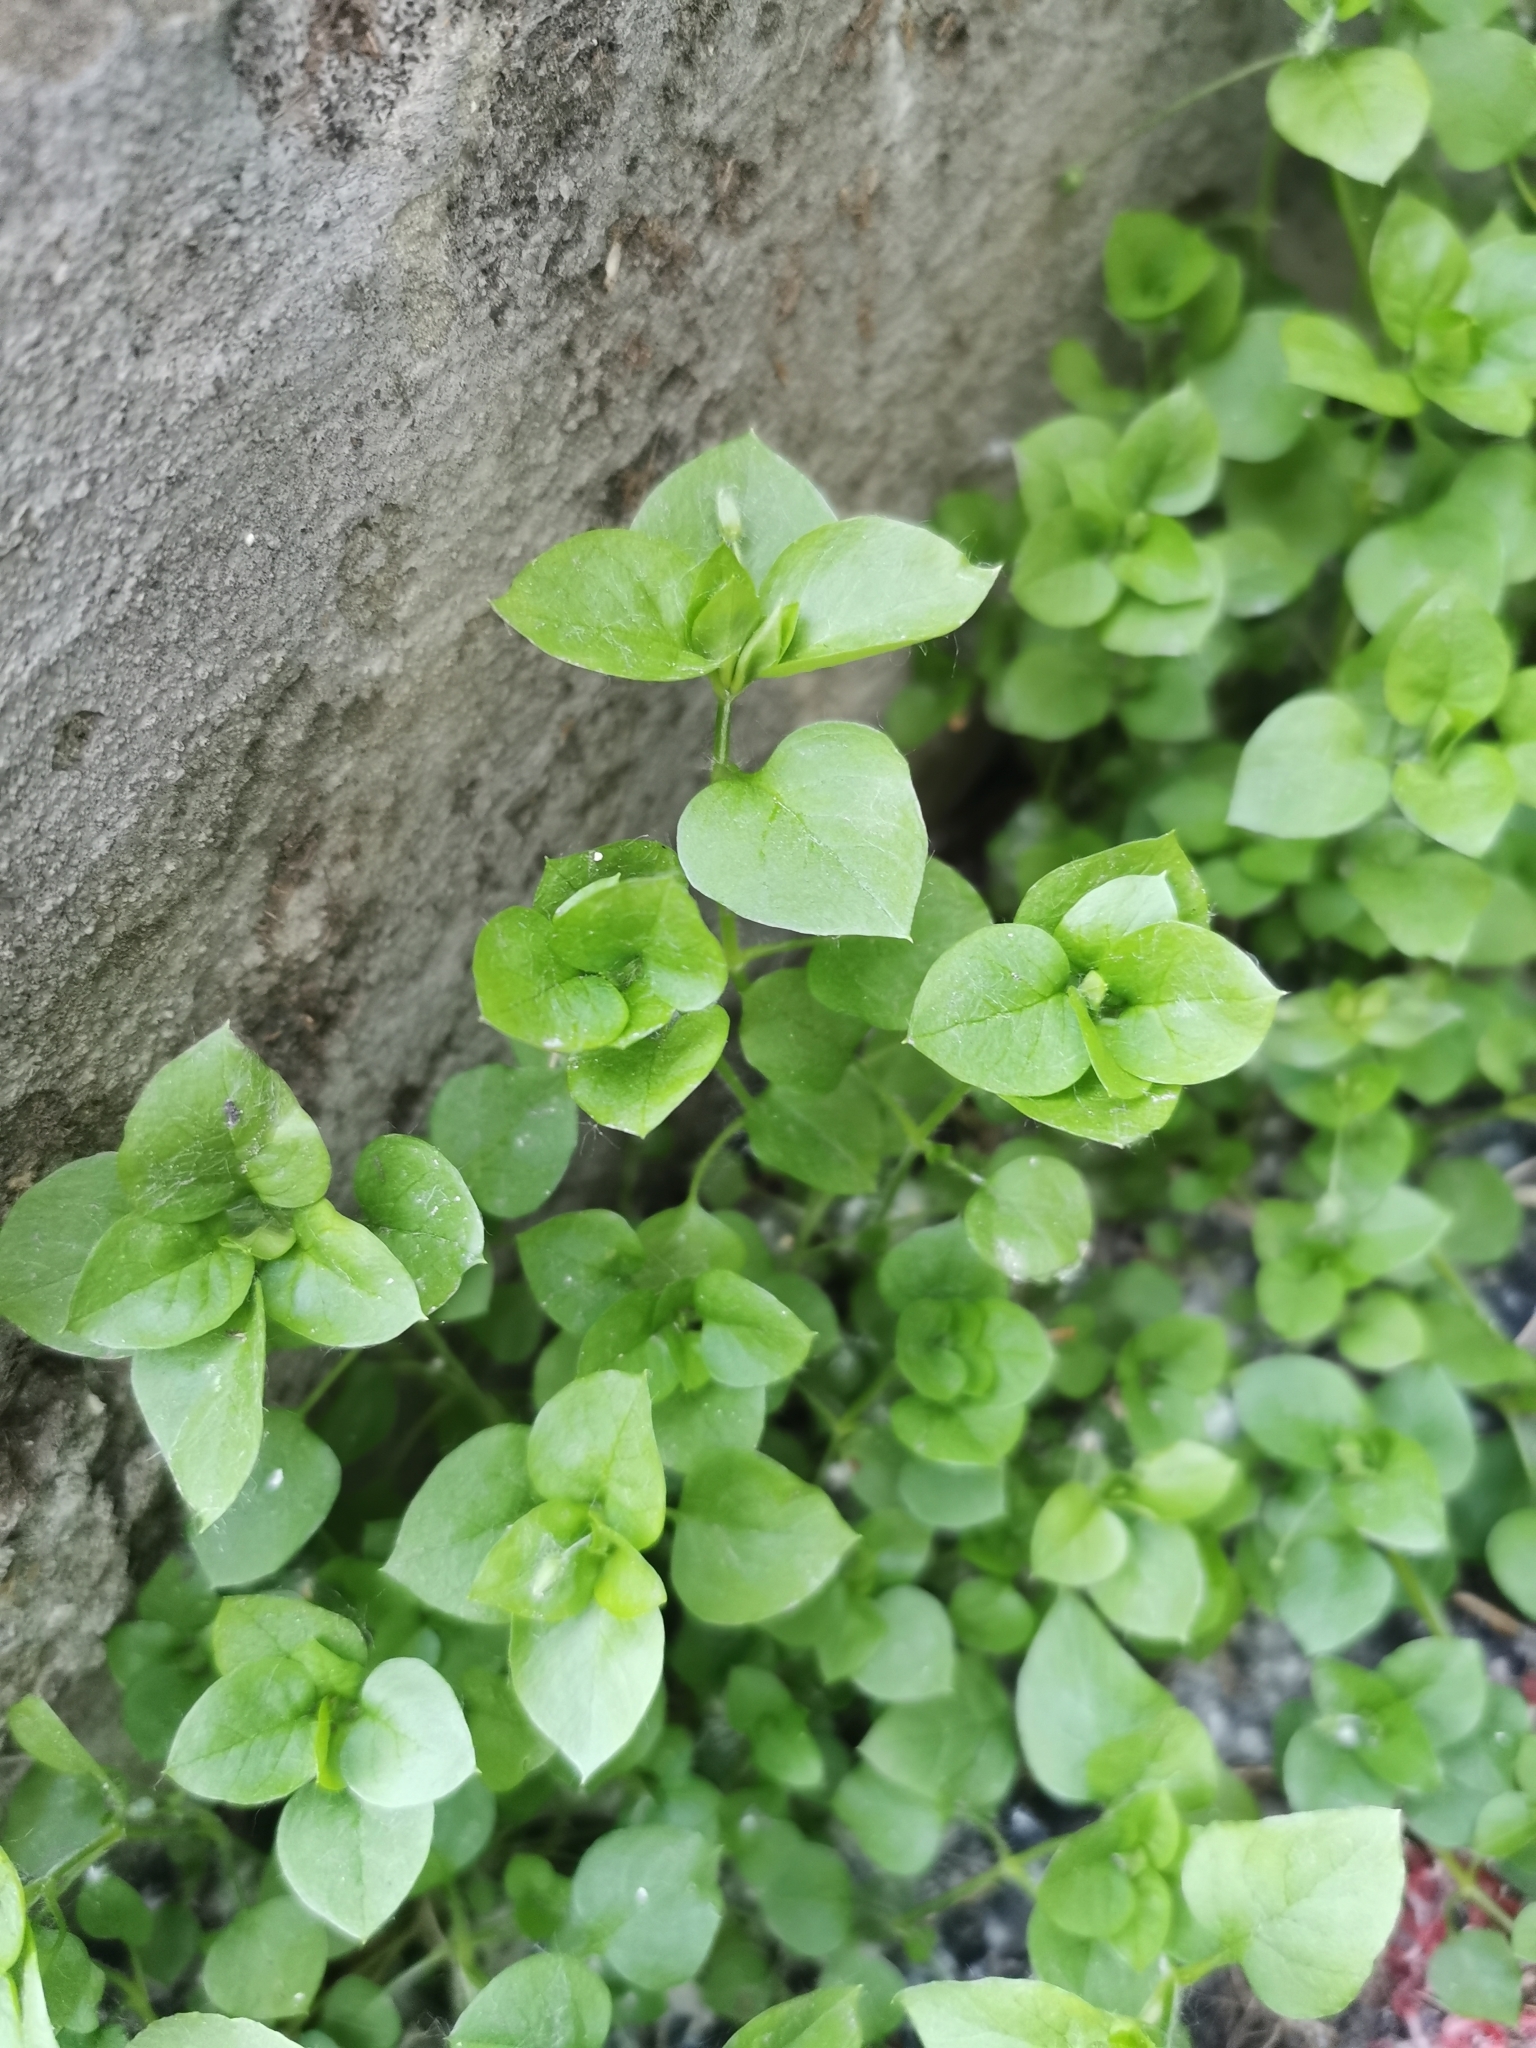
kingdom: Plantae
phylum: Tracheophyta
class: Magnoliopsida
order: Caryophyllales
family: Caryophyllaceae
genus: Stellaria
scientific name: Stellaria media
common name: Common chickweed
